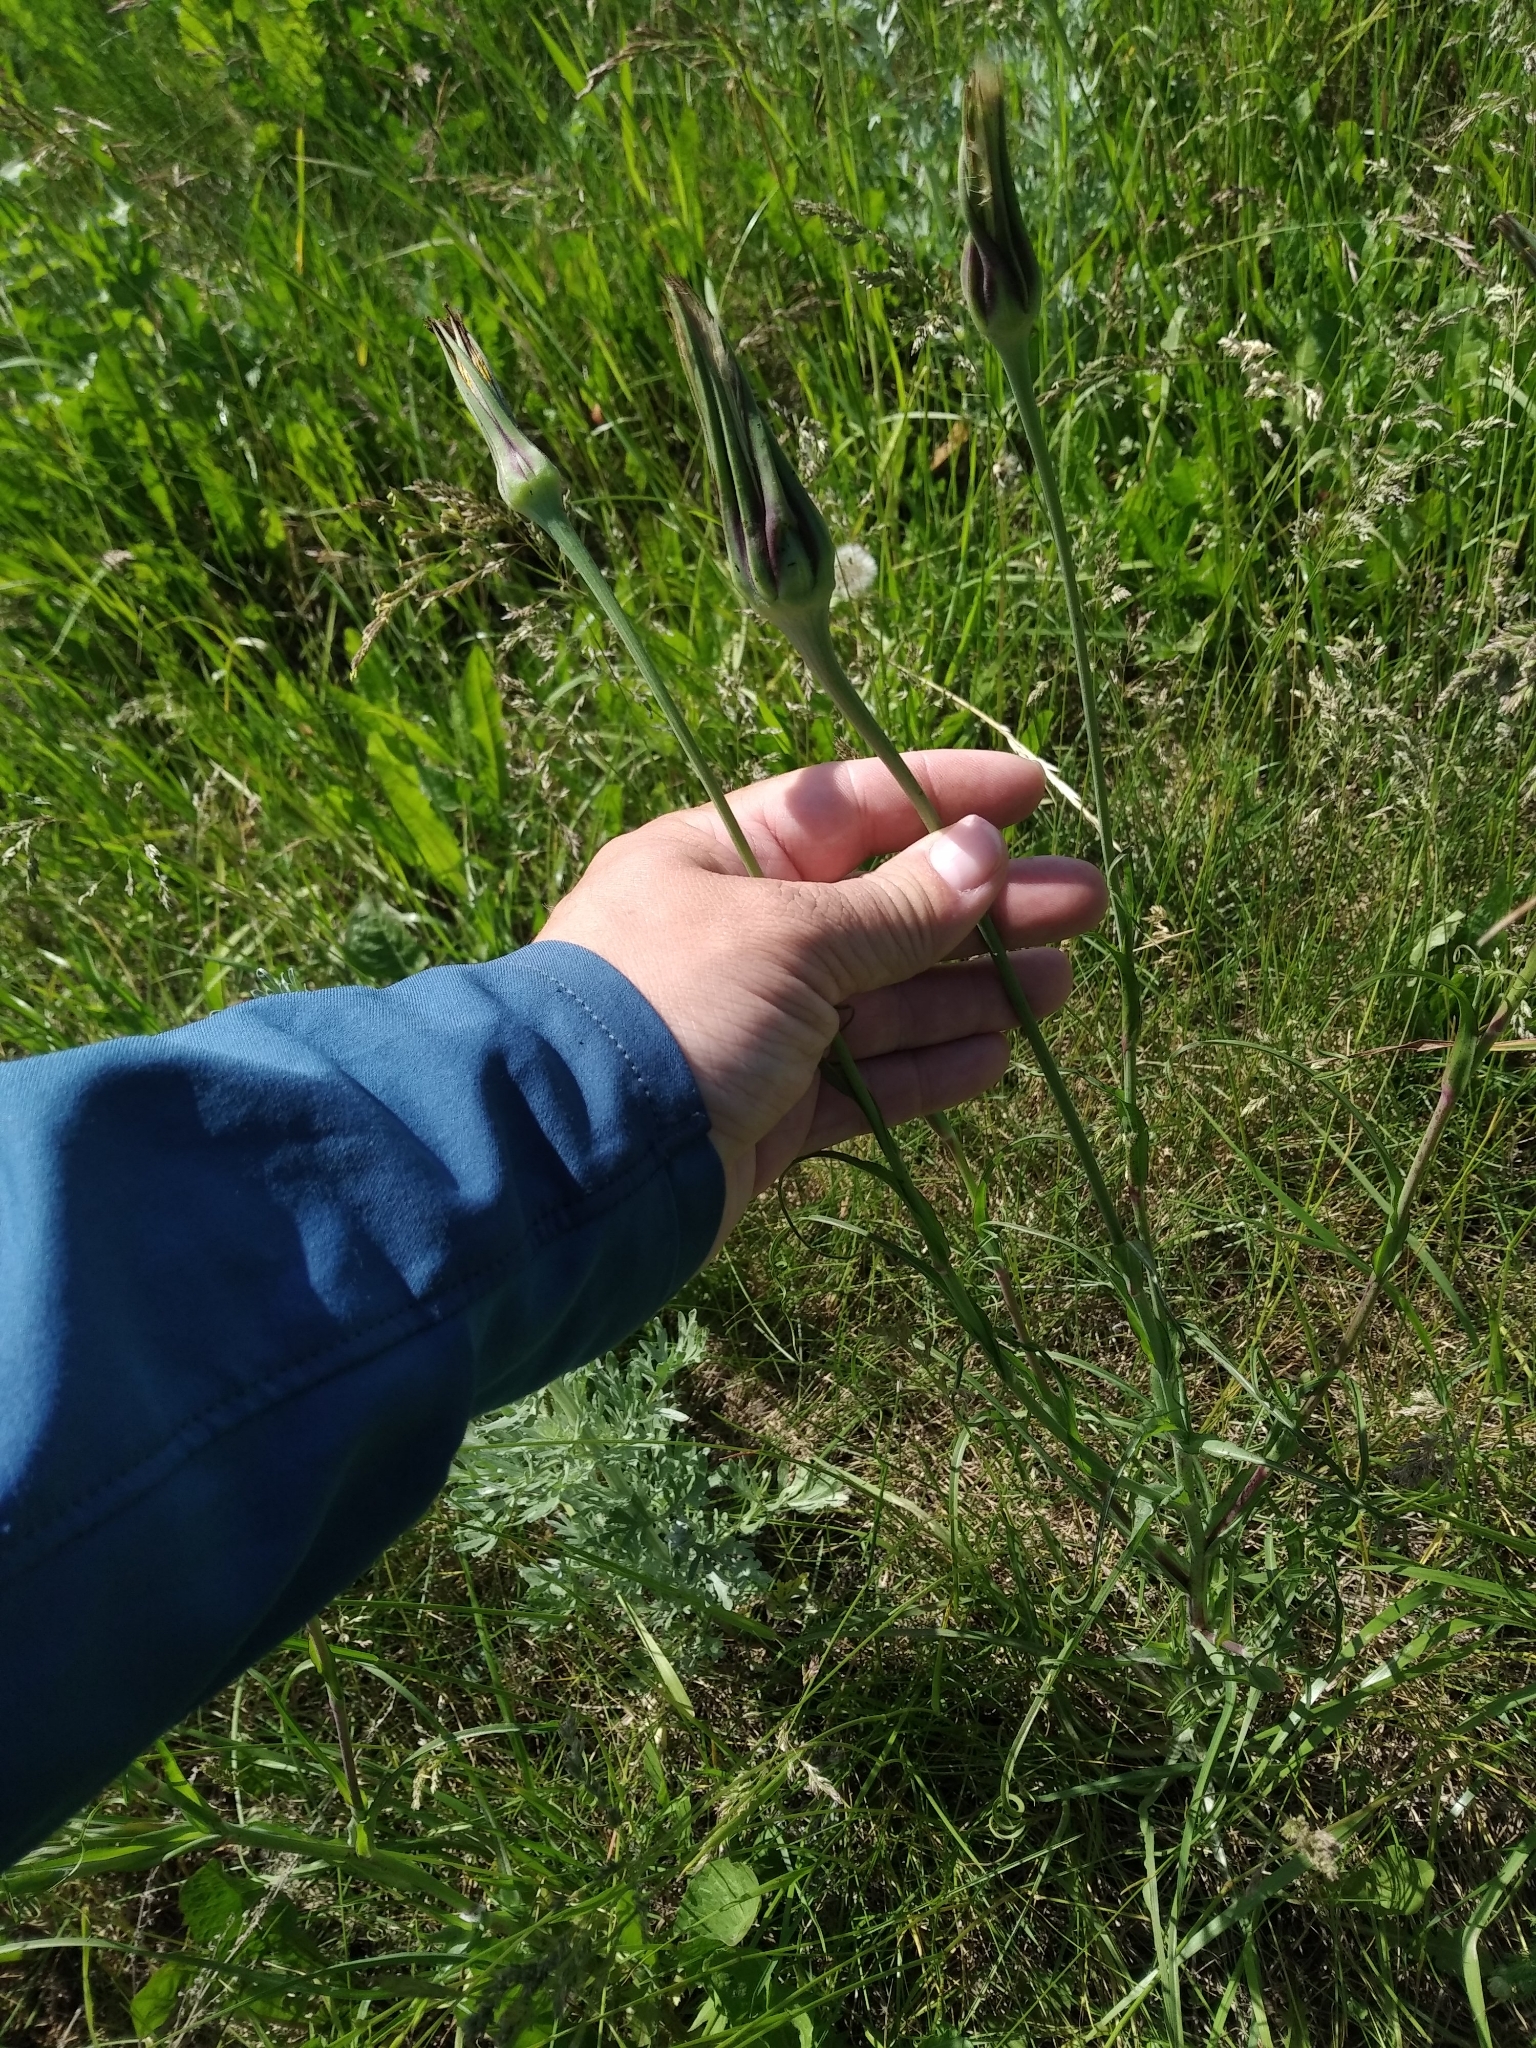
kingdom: Plantae
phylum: Tracheophyta
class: Magnoliopsida
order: Asterales
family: Asteraceae
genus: Tragopogon
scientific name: Tragopogon dubius
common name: Yellow salsify
